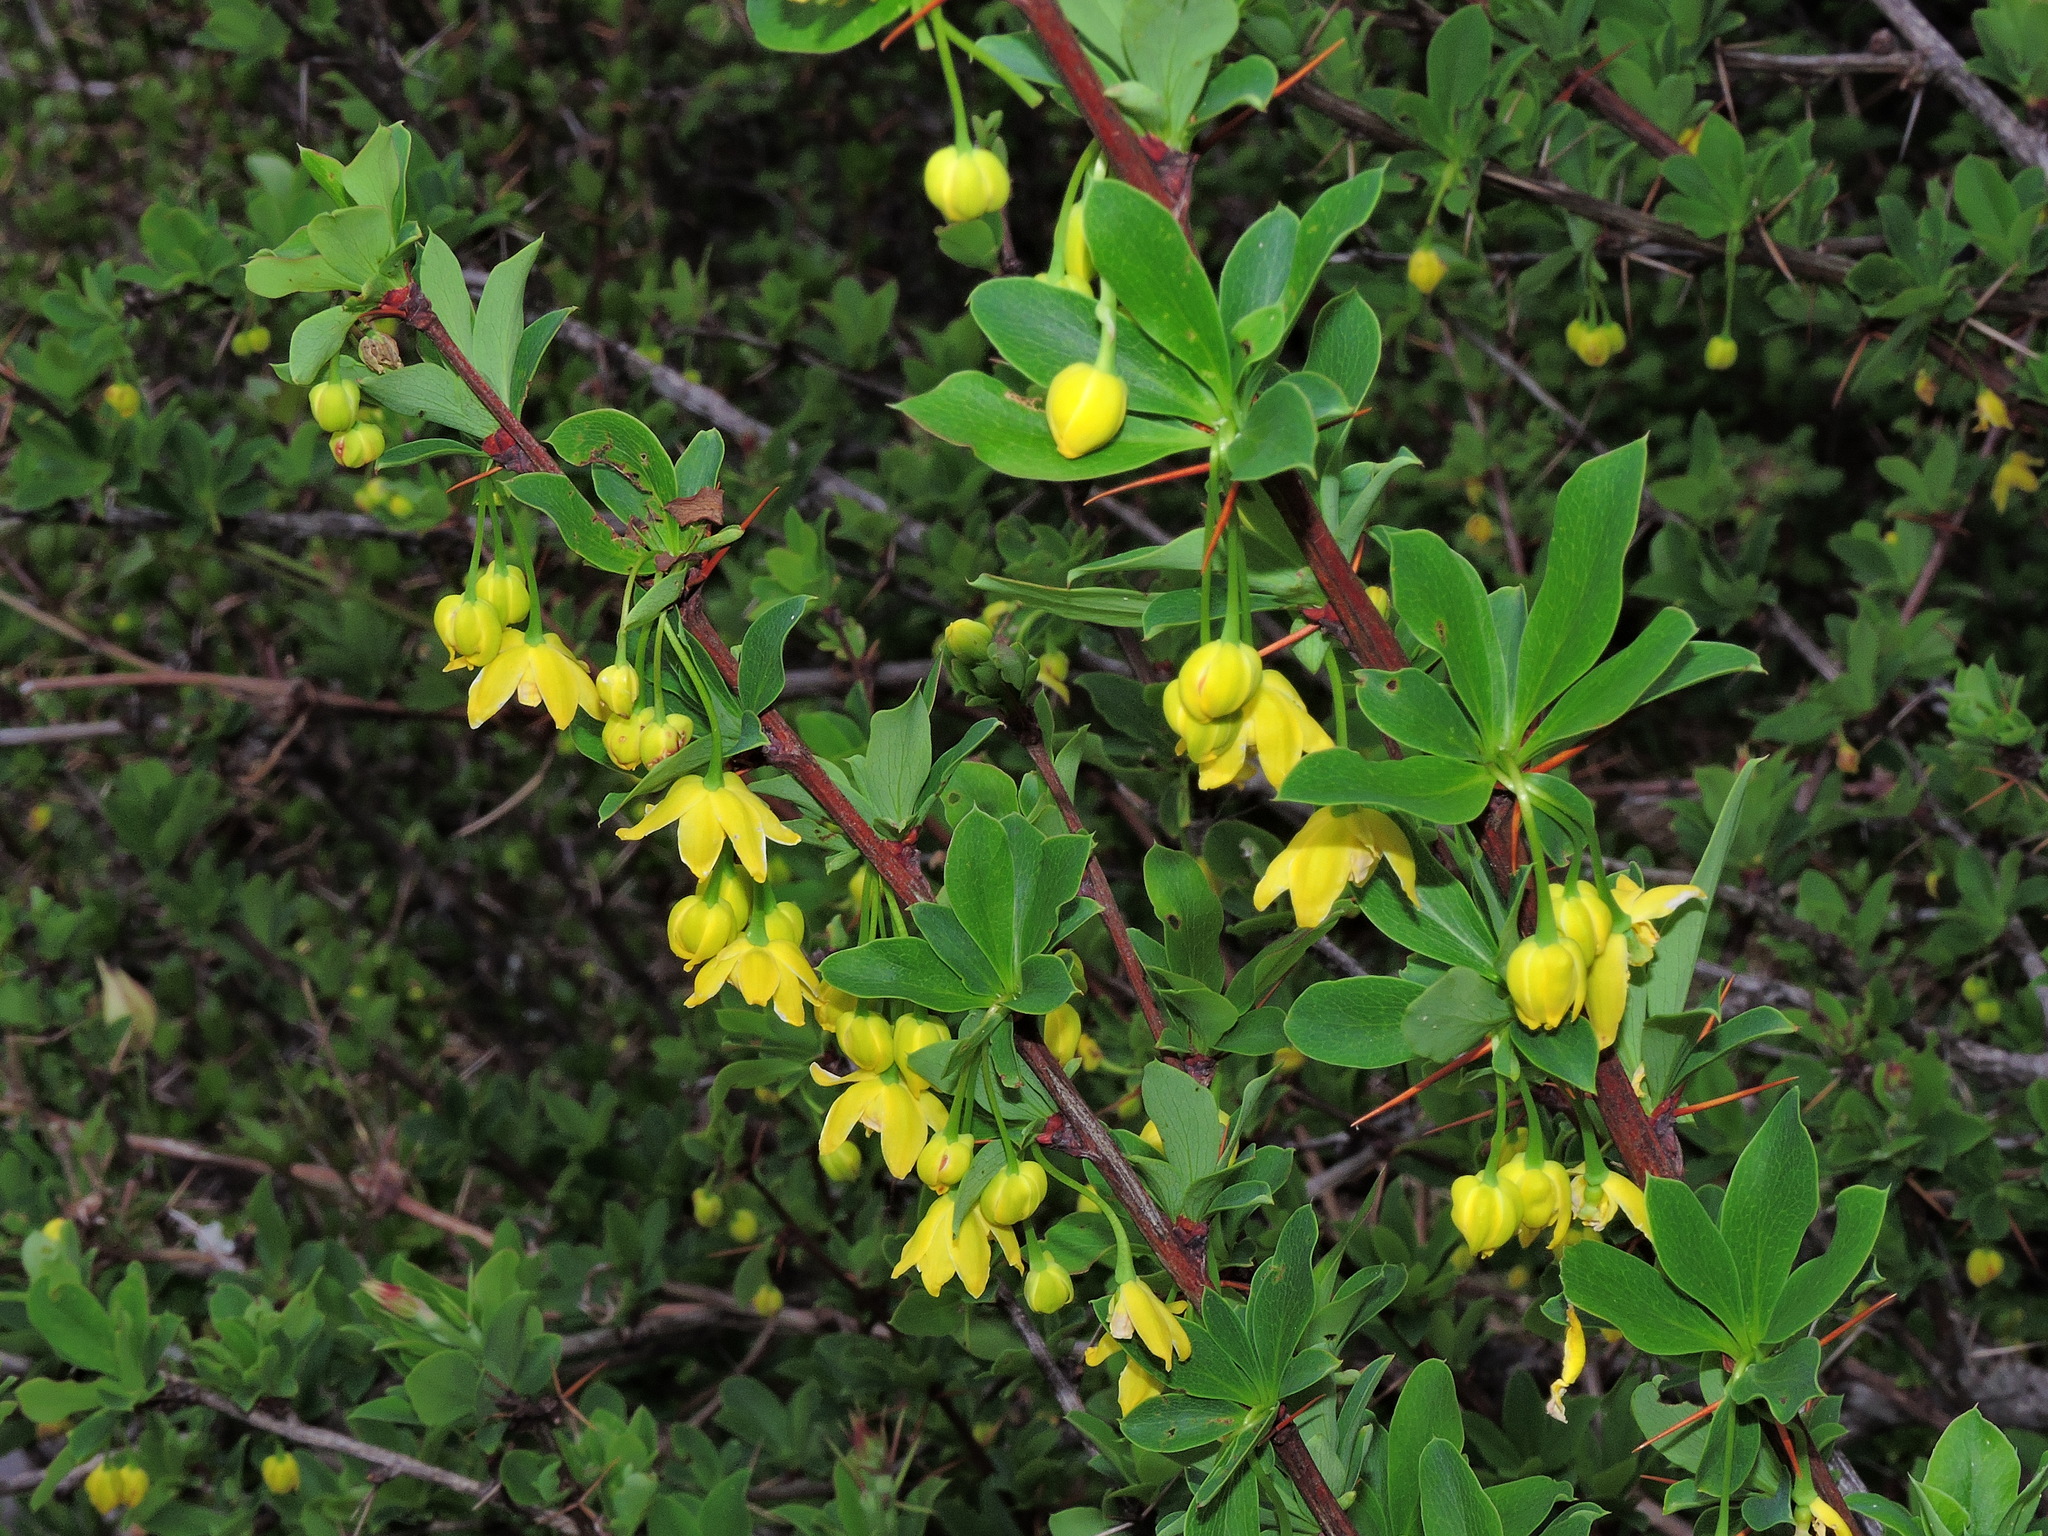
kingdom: Plantae
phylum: Tracheophyta
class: Magnoliopsida
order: Ranunculales
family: Berberidaceae
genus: Berberis
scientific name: Berberis morrisonensis
